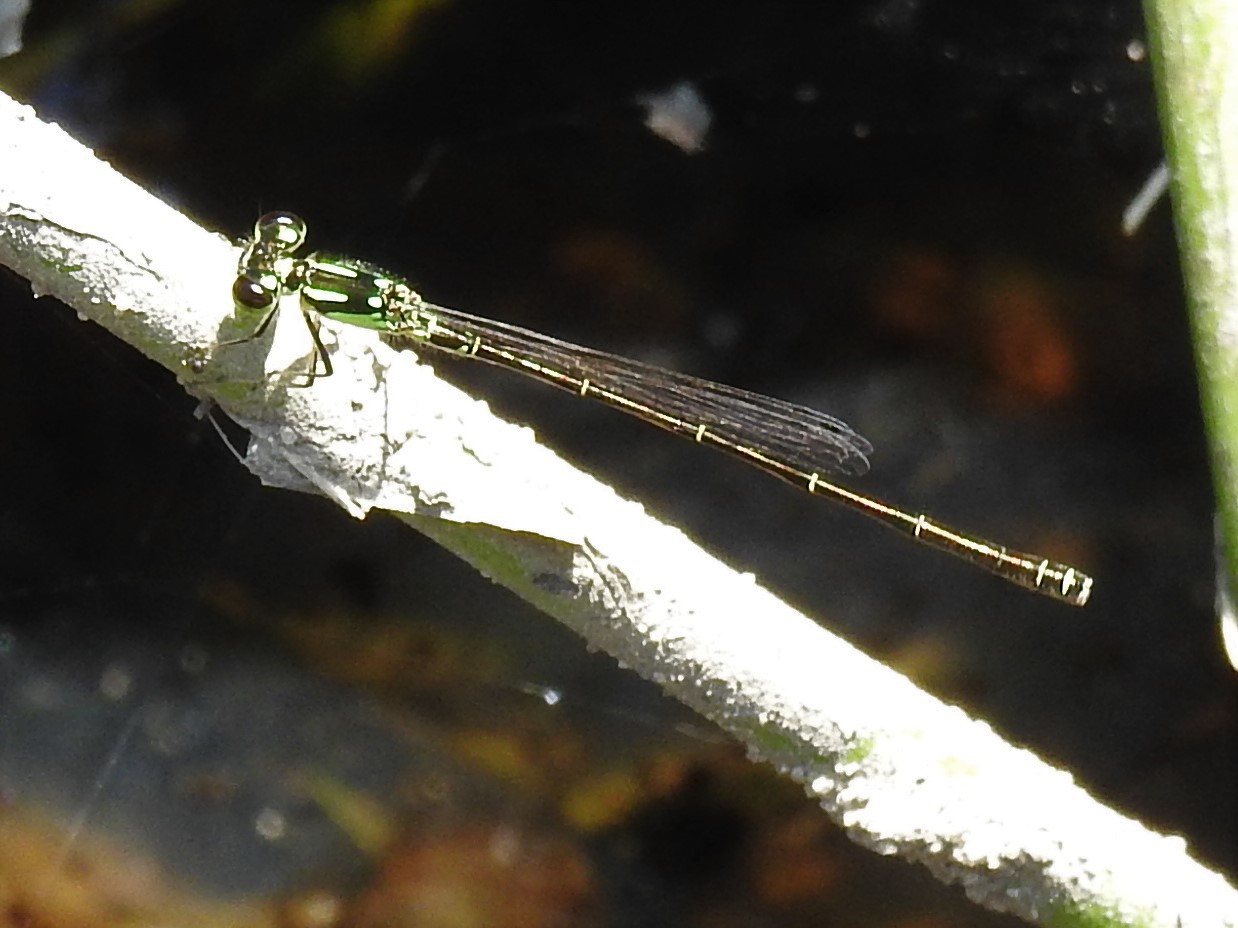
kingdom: Animalia
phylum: Arthropoda
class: Insecta
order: Odonata
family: Coenagrionidae
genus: Ischnura
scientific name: Ischnura posita
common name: Fragile forktail
